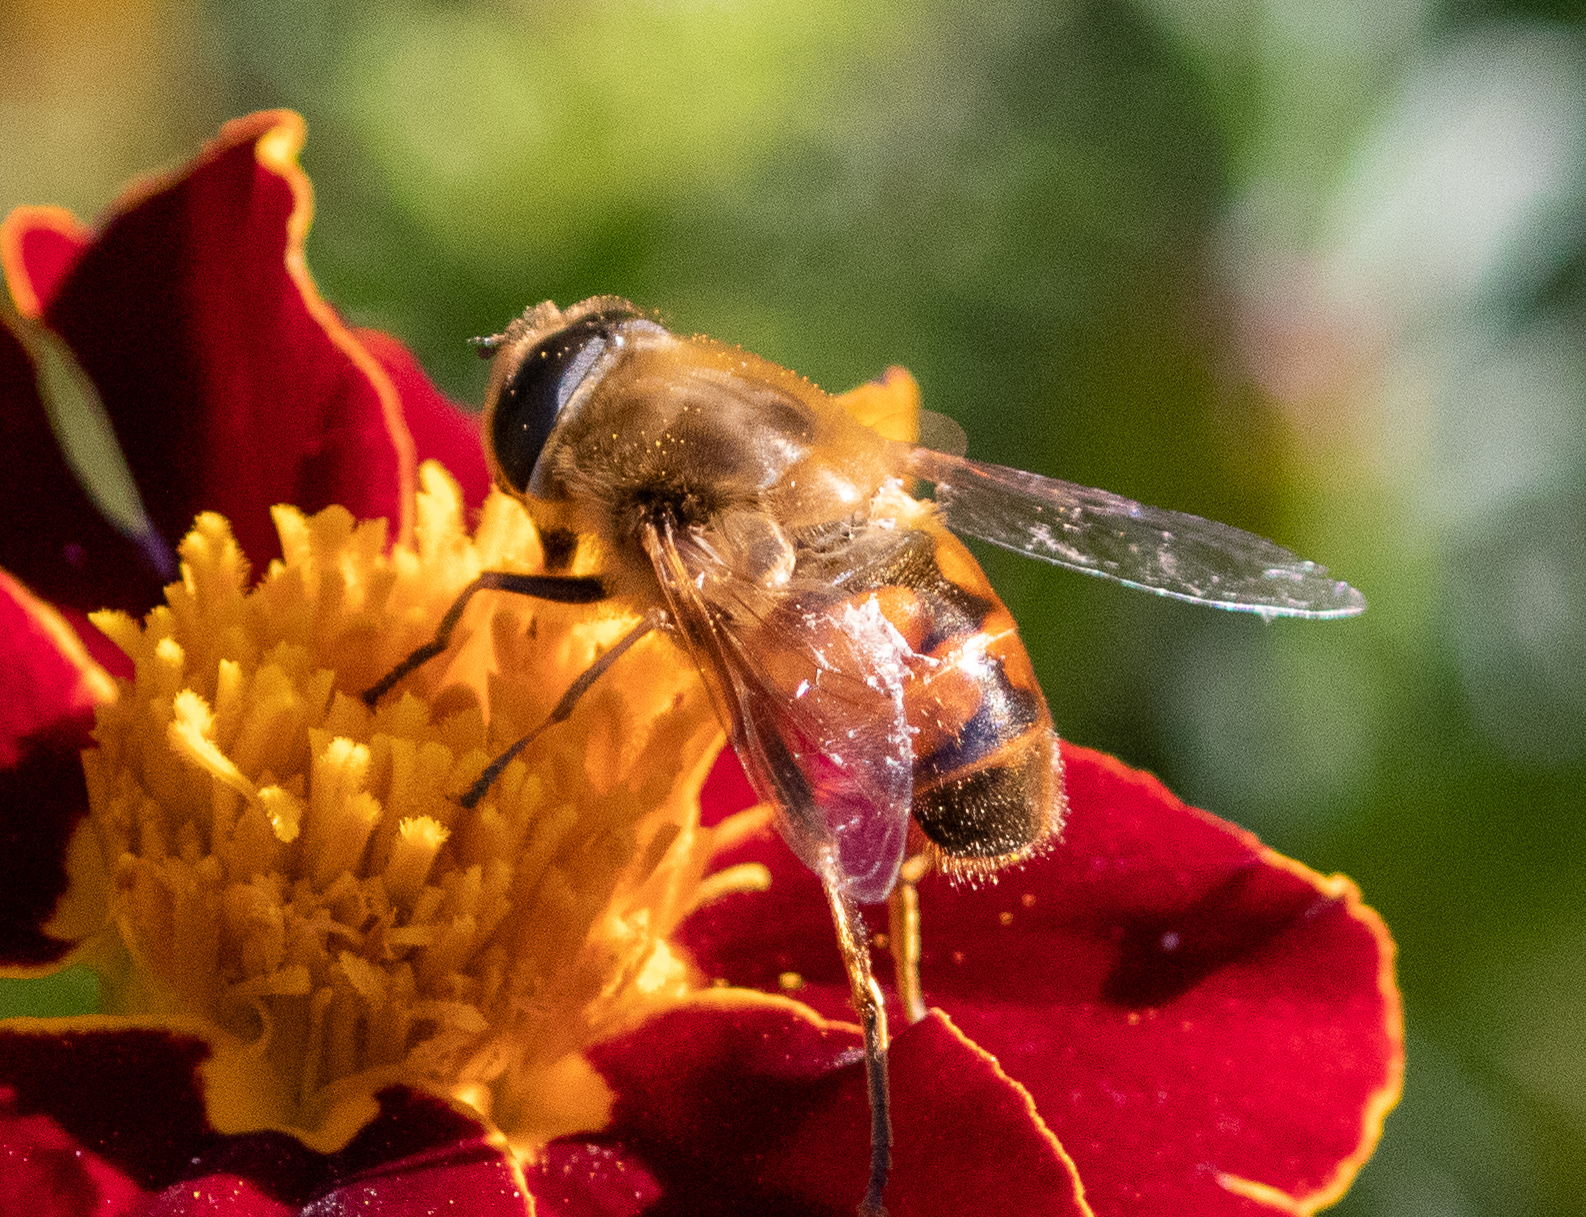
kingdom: Animalia
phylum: Arthropoda
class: Insecta
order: Diptera
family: Syrphidae
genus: Eristalis
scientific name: Eristalis tenax
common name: Drone fly
